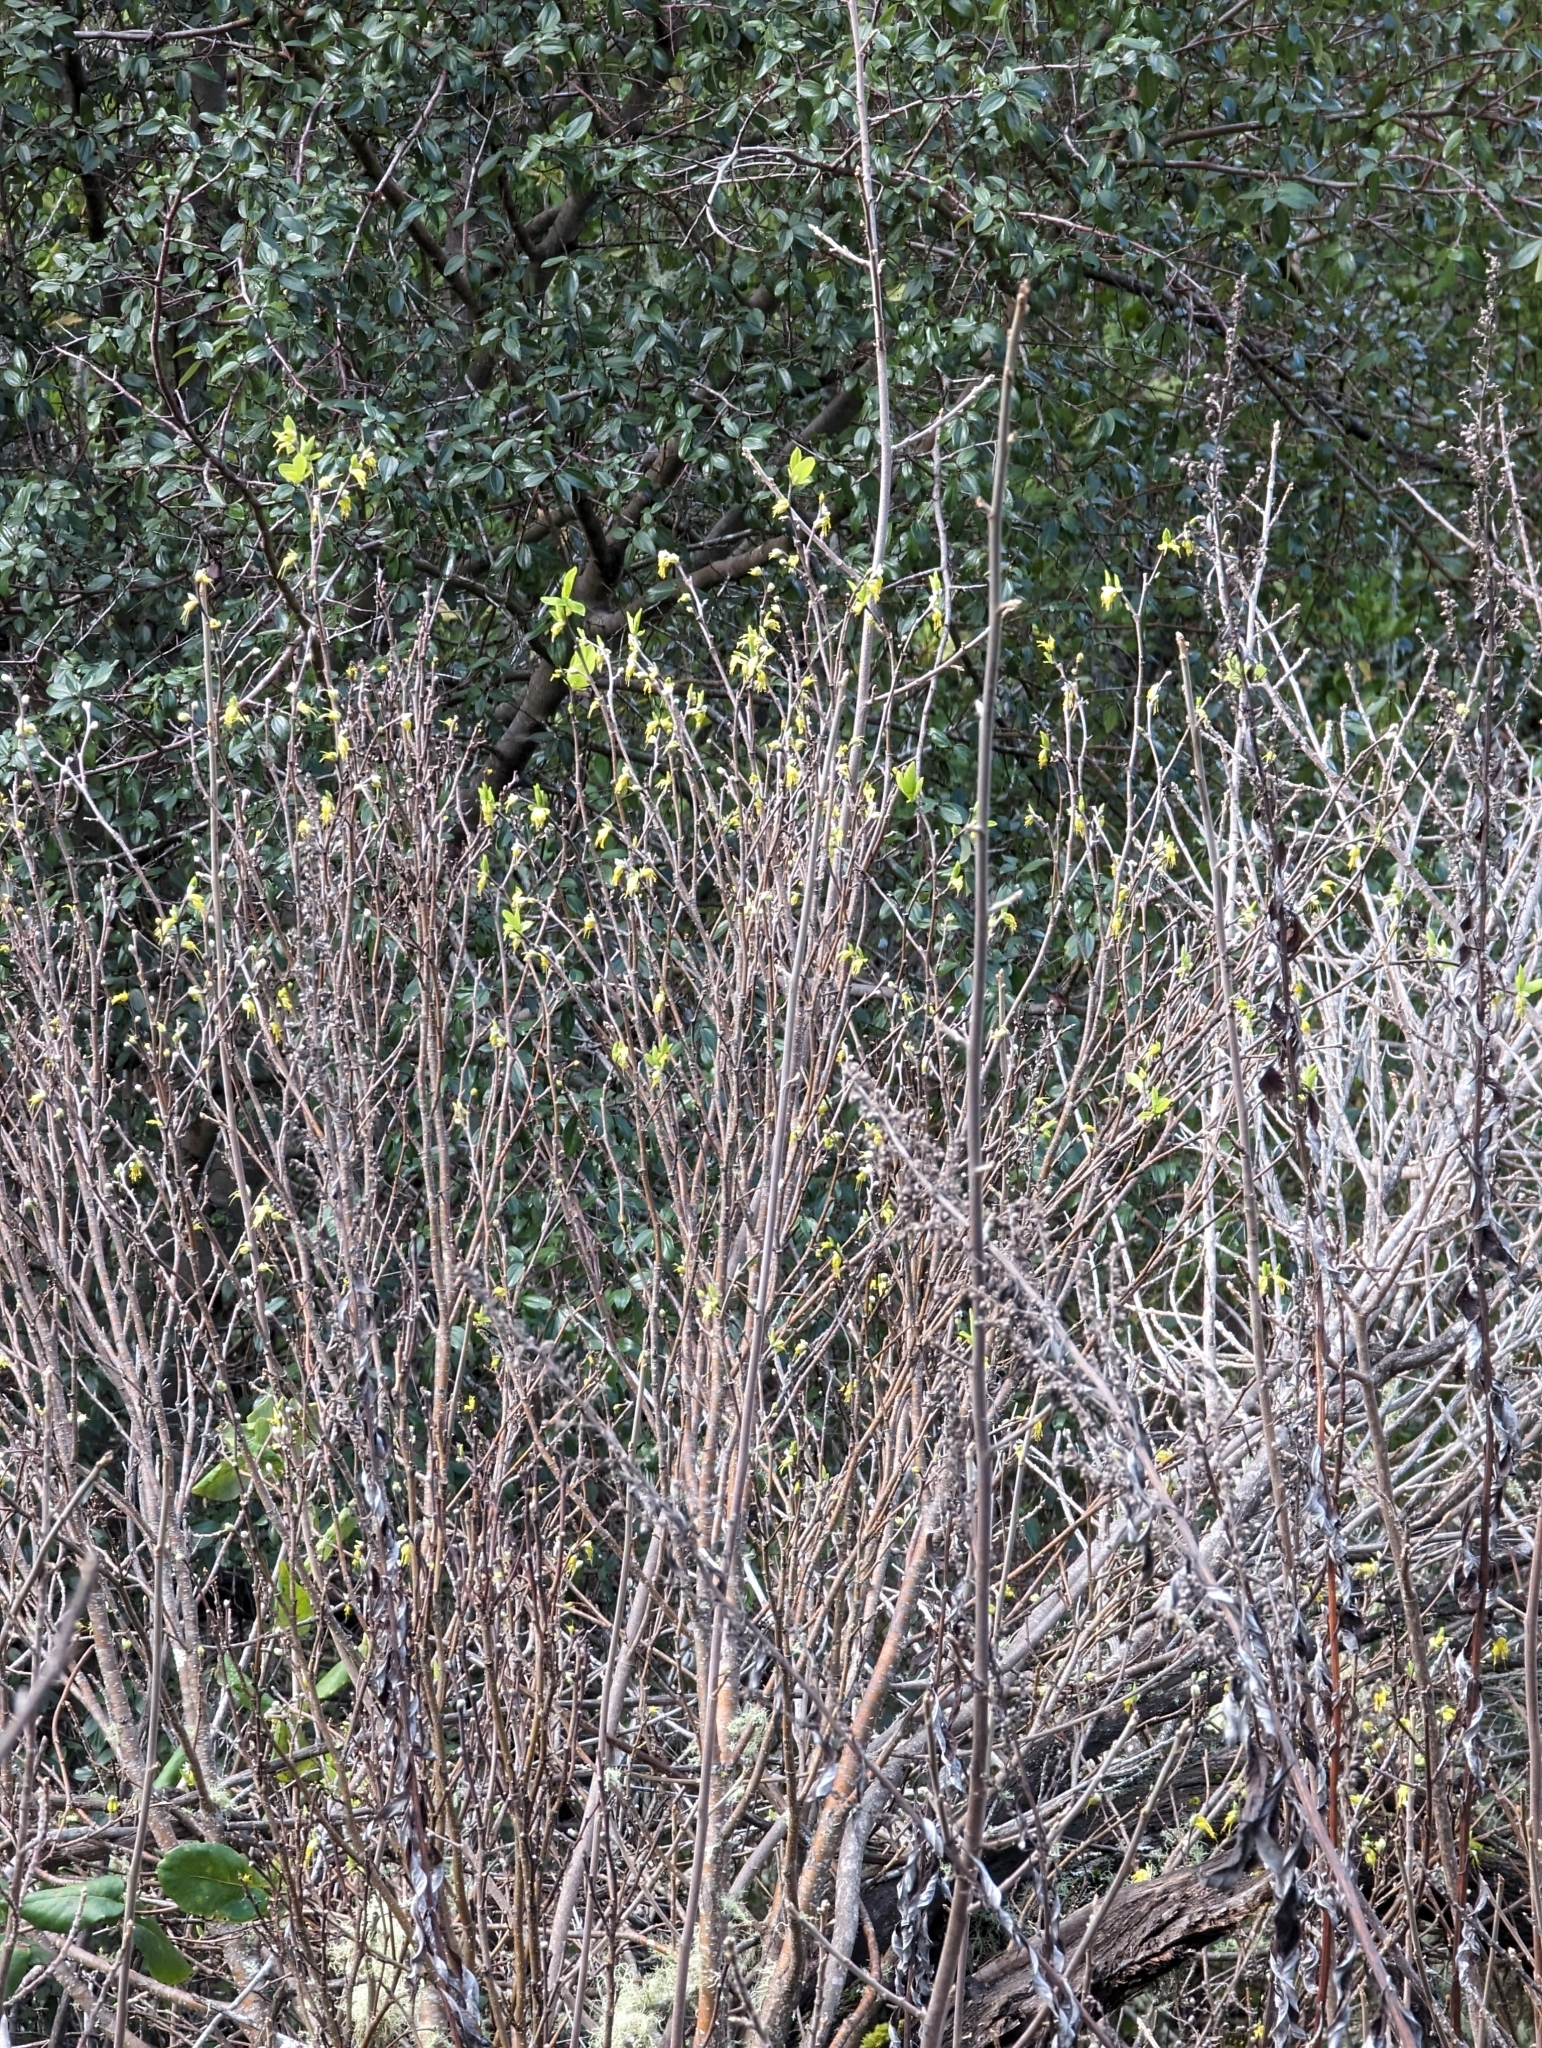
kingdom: Plantae
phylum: Tracheophyta
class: Magnoliopsida
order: Malvales
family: Thymelaeaceae
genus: Dirca
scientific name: Dirca occidentalis
